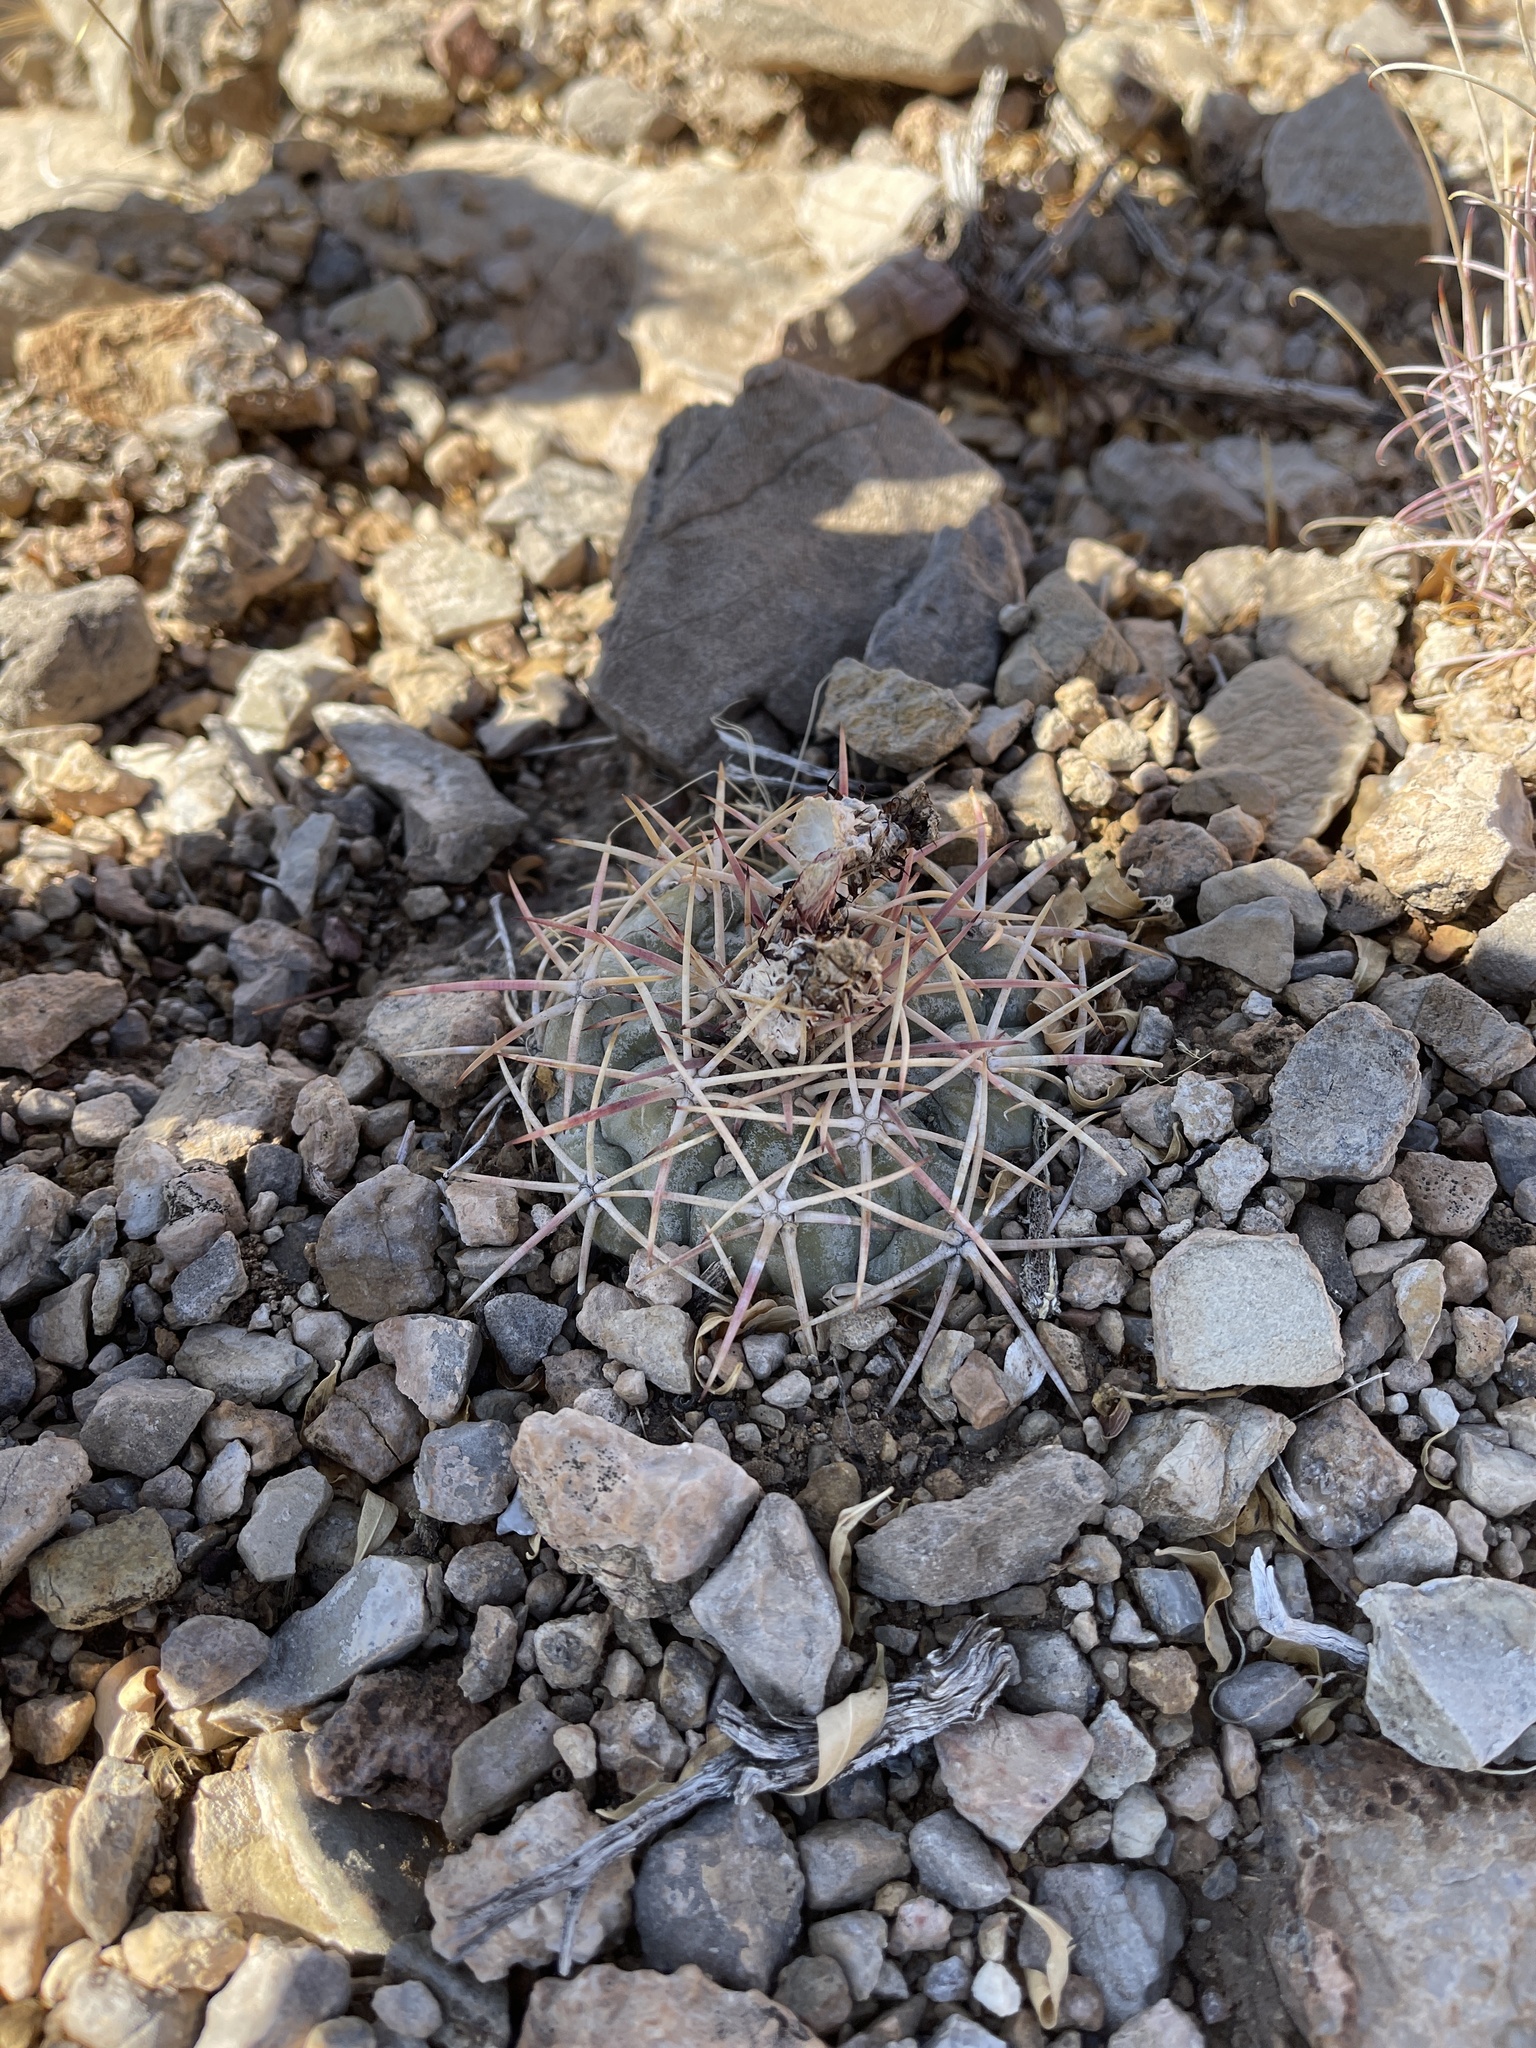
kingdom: Plantae
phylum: Tracheophyta
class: Magnoliopsida
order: Caryophyllales
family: Cactaceae
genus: Echinocactus
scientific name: Echinocactus horizonthalonius
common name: Devilshead
